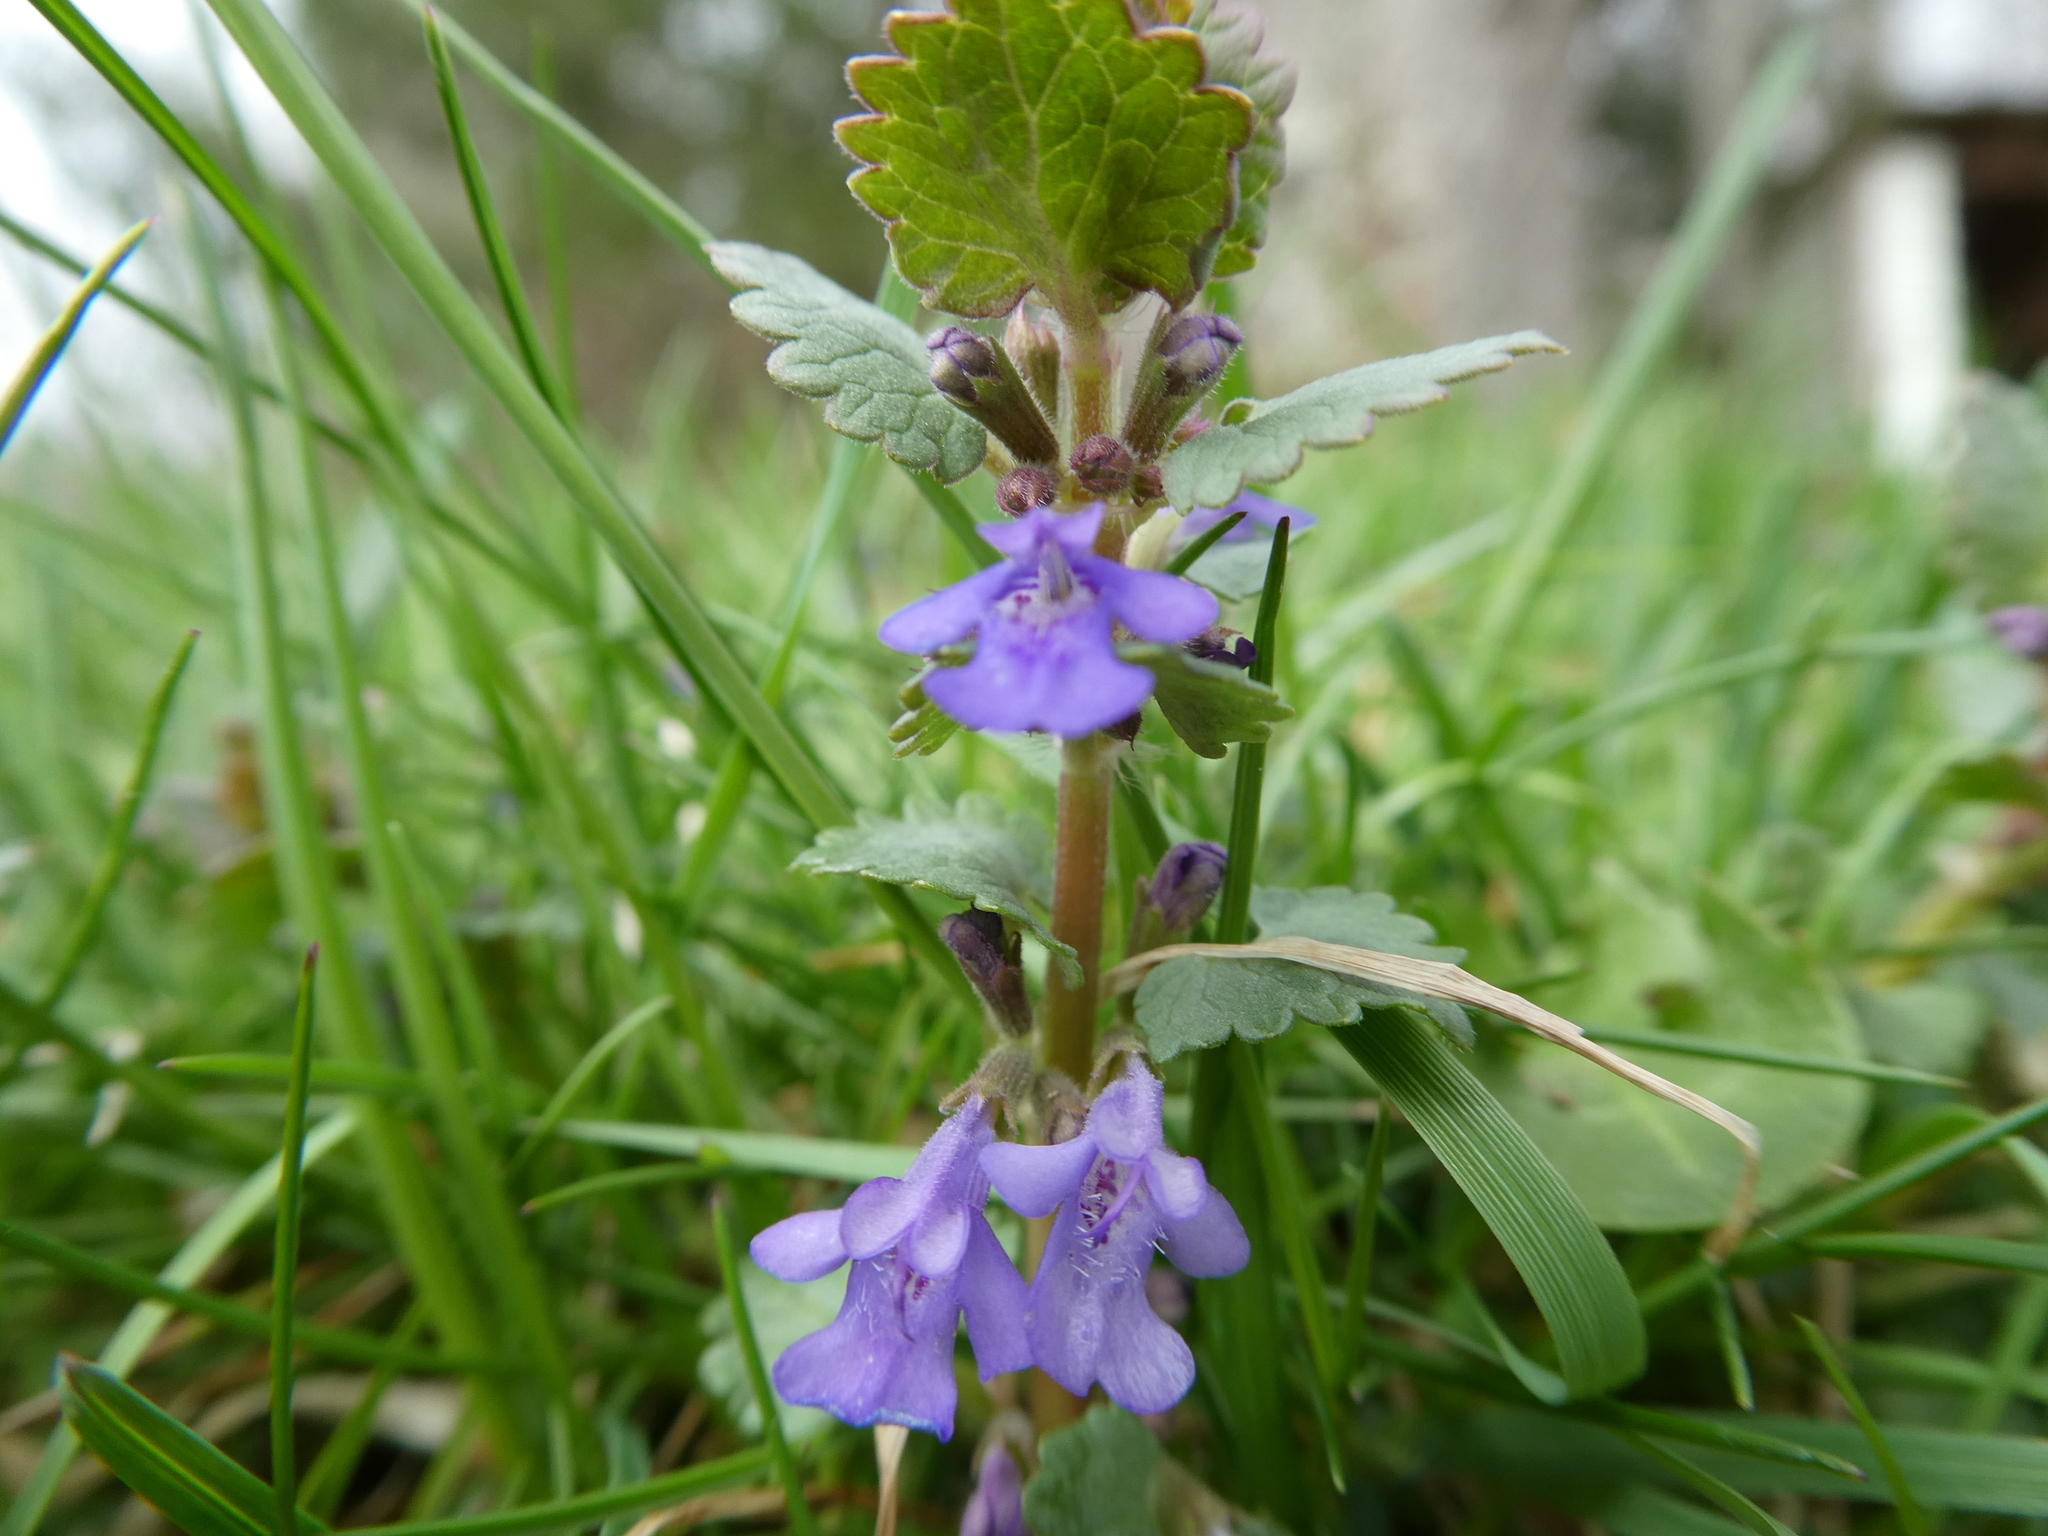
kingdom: Plantae
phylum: Tracheophyta
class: Magnoliopsida
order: Lamiales
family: Lamiaceae
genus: Glechoma
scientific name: Glechoma hederacea
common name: Ground ivy
